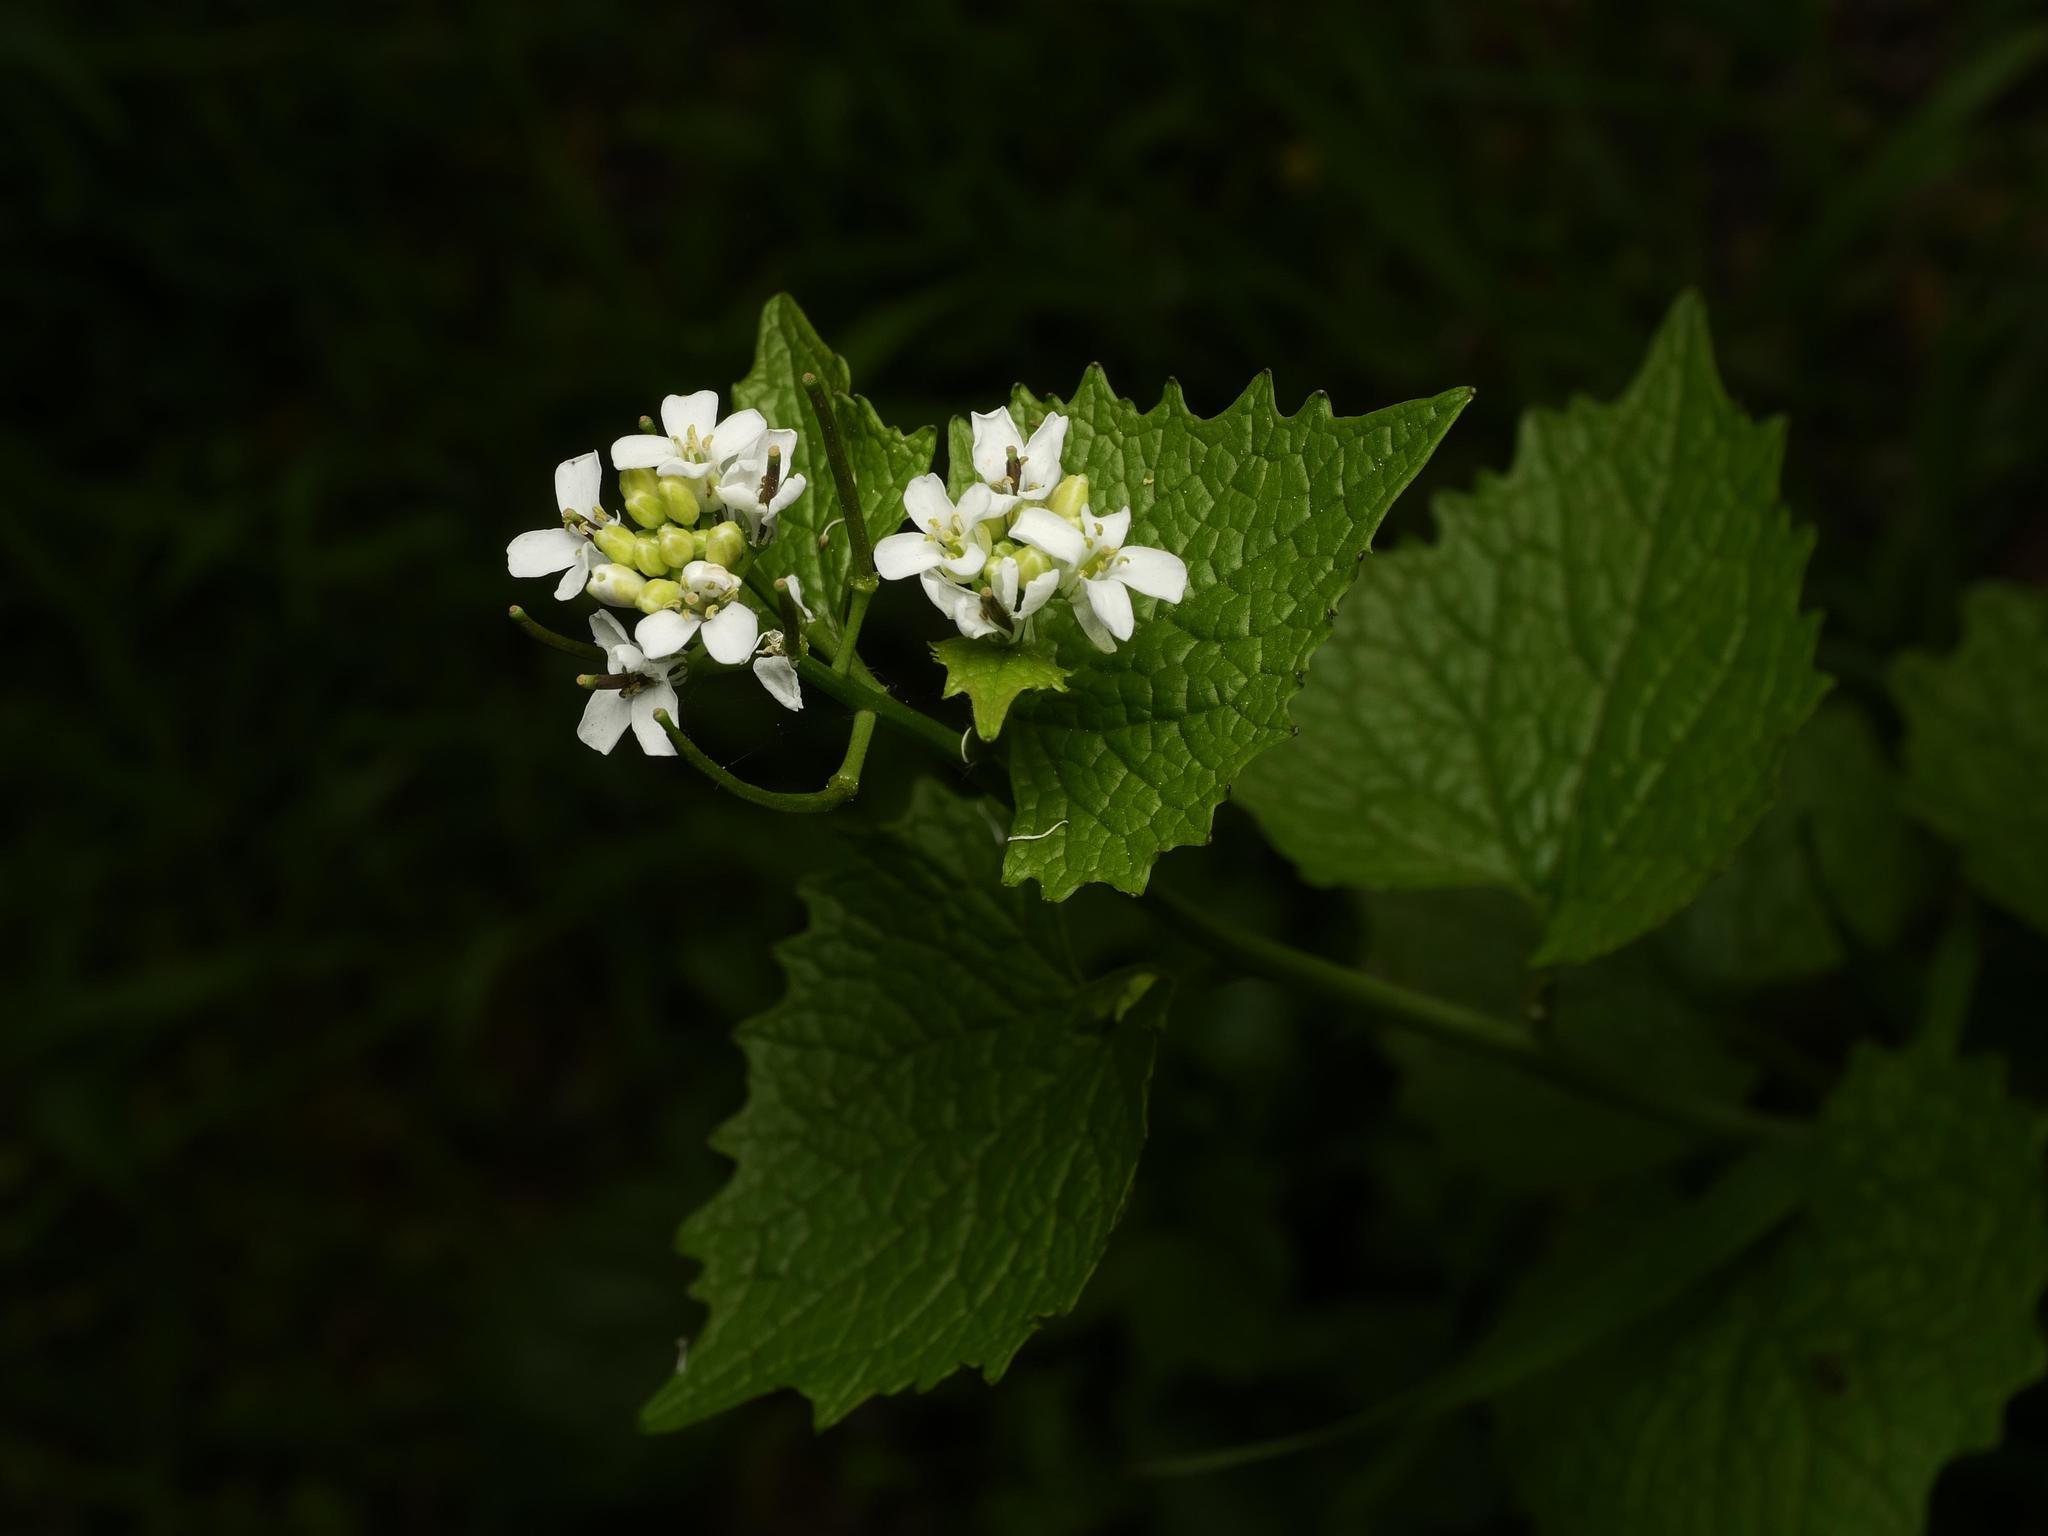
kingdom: Plantae
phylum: Tracheophyta
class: Magnoliopsida
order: Brassicales
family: Brassicaceae
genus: Alliaria
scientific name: Alliaria petiolata
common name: Garlic mustard
